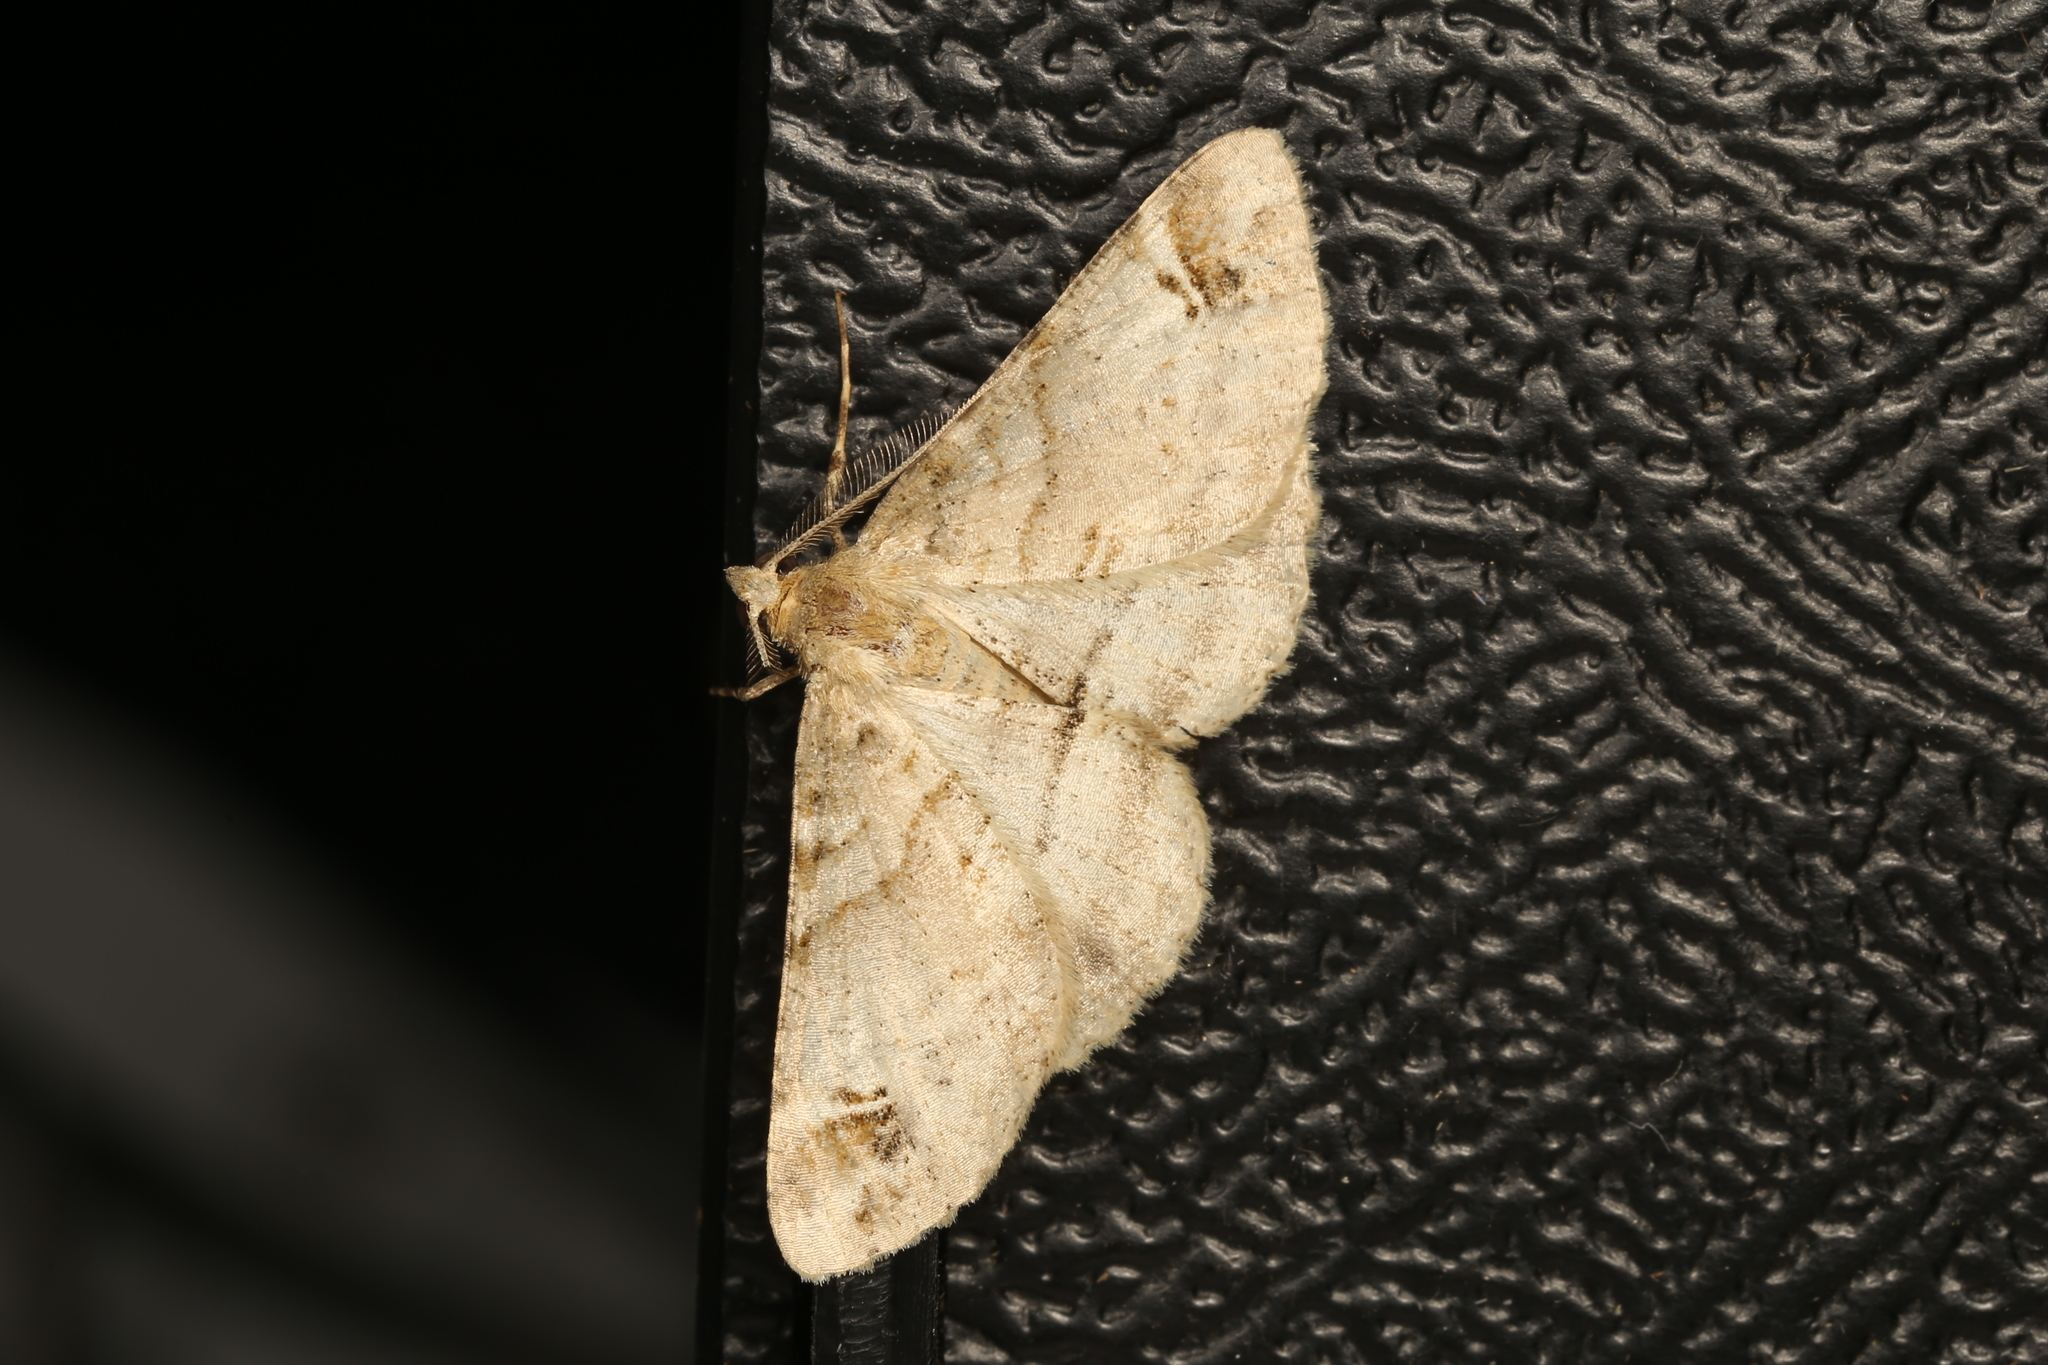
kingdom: Animalia
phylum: Arthropoda
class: Insecta
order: Lepidoptera
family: Geometridae
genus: Syneora
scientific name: Syneora hemeropa
